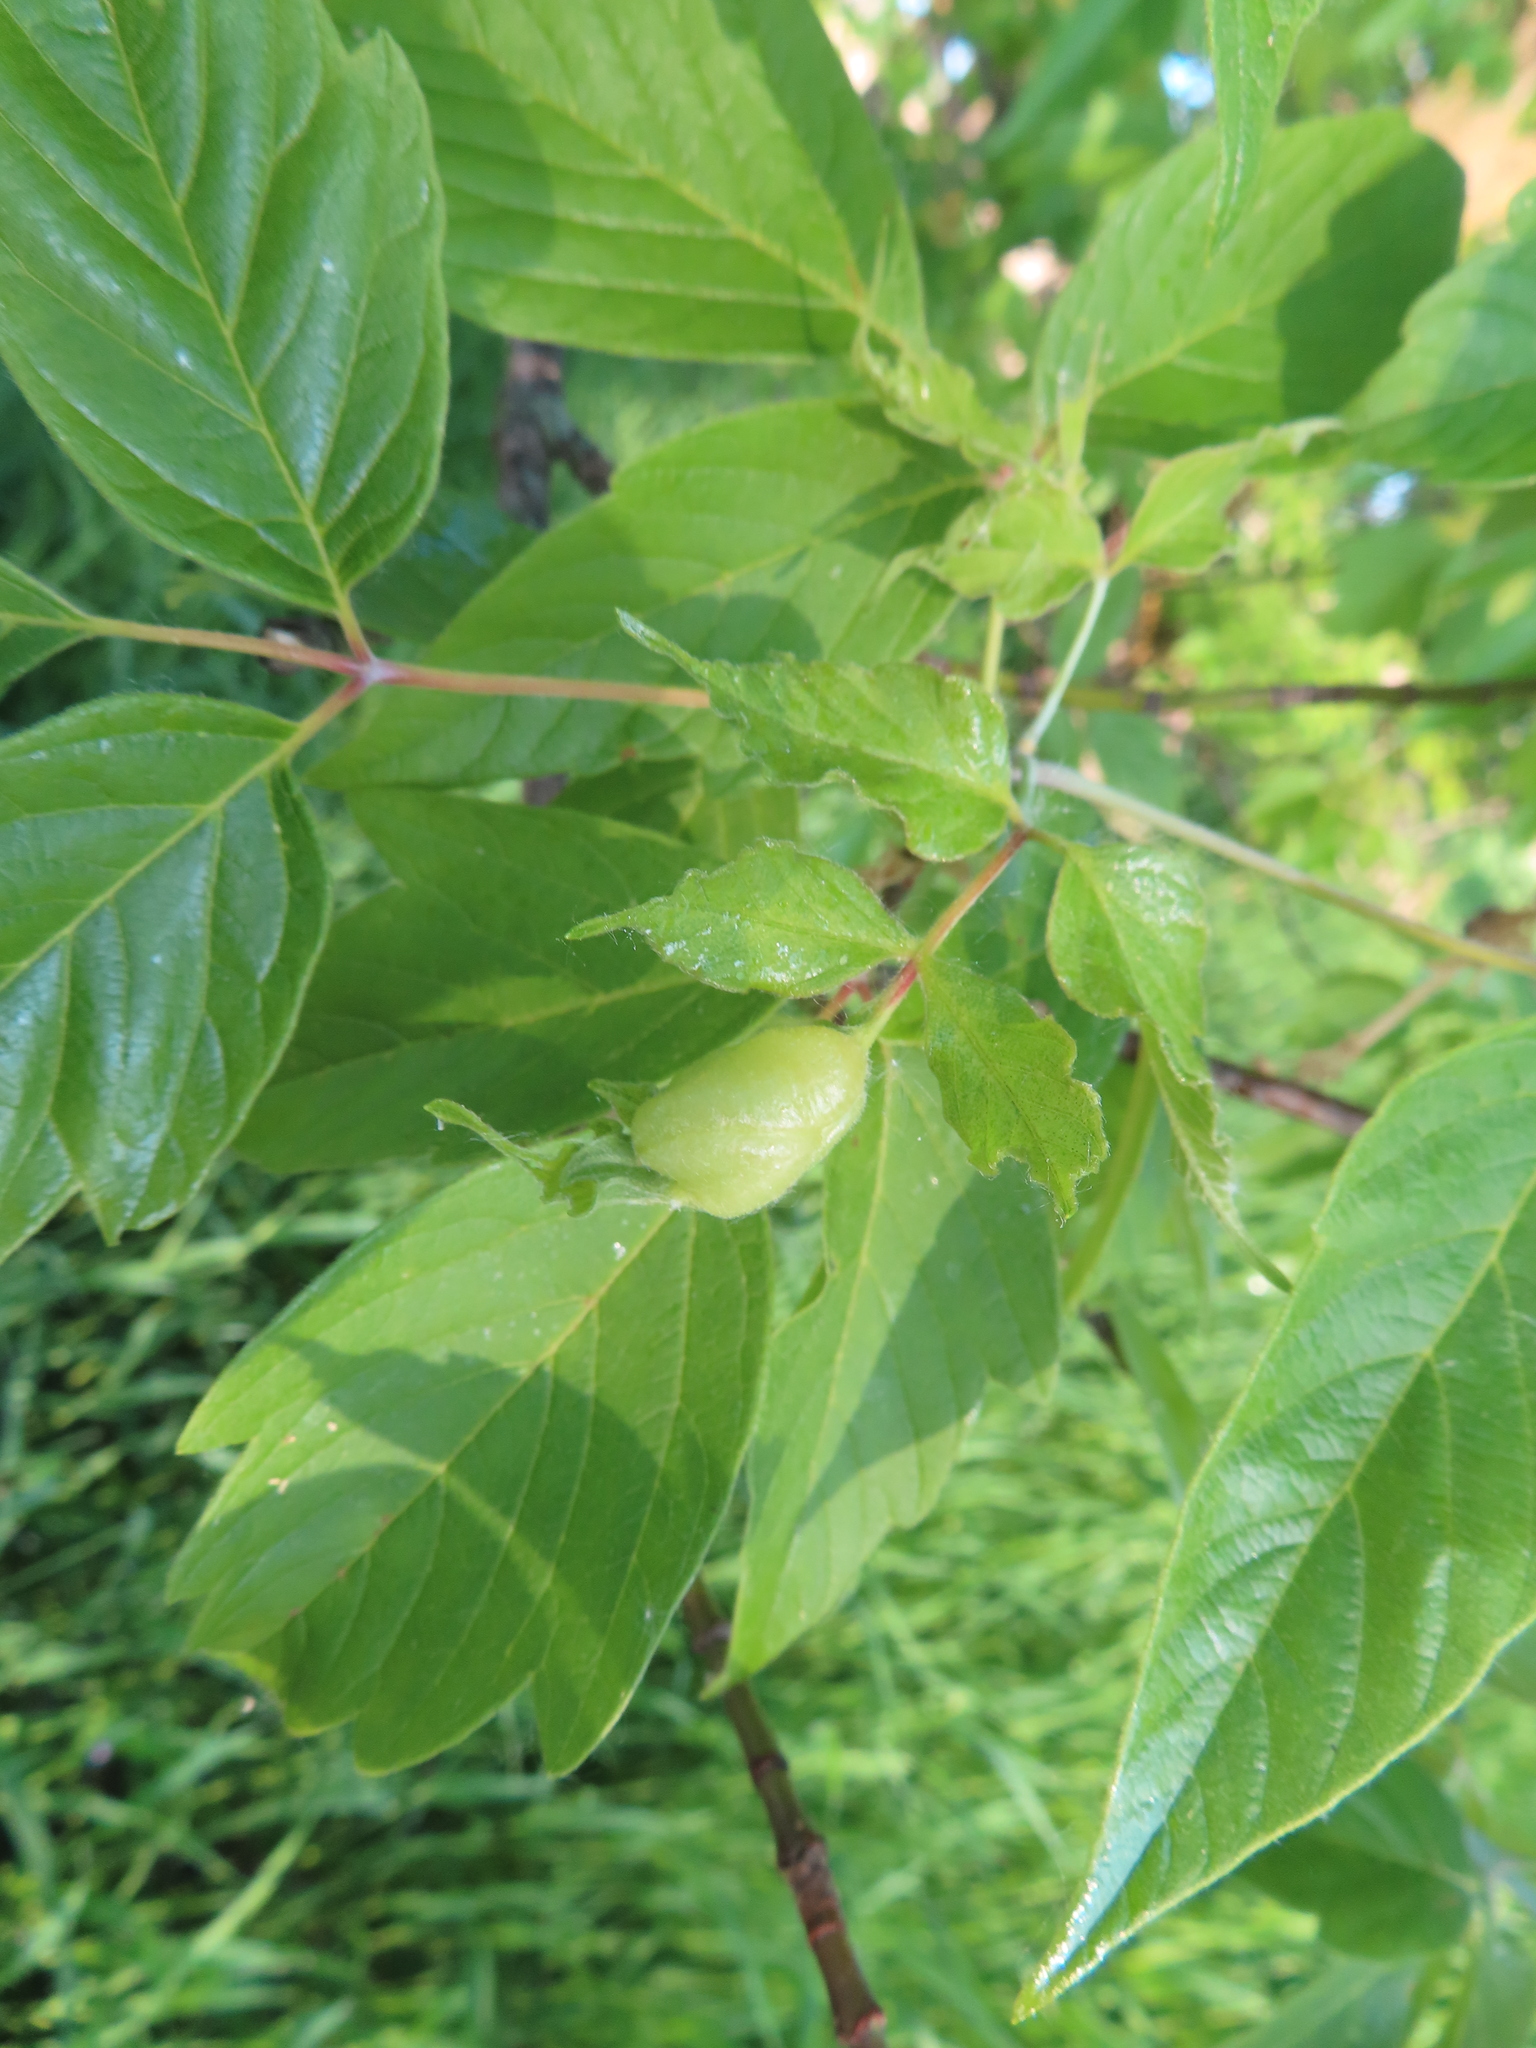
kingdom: Animalia
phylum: Arthropoda
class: Insecta
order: Diptera
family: Cecidomyiidae
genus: Contarinia
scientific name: Contarinia negundinis
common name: Boxelder budgall midge
